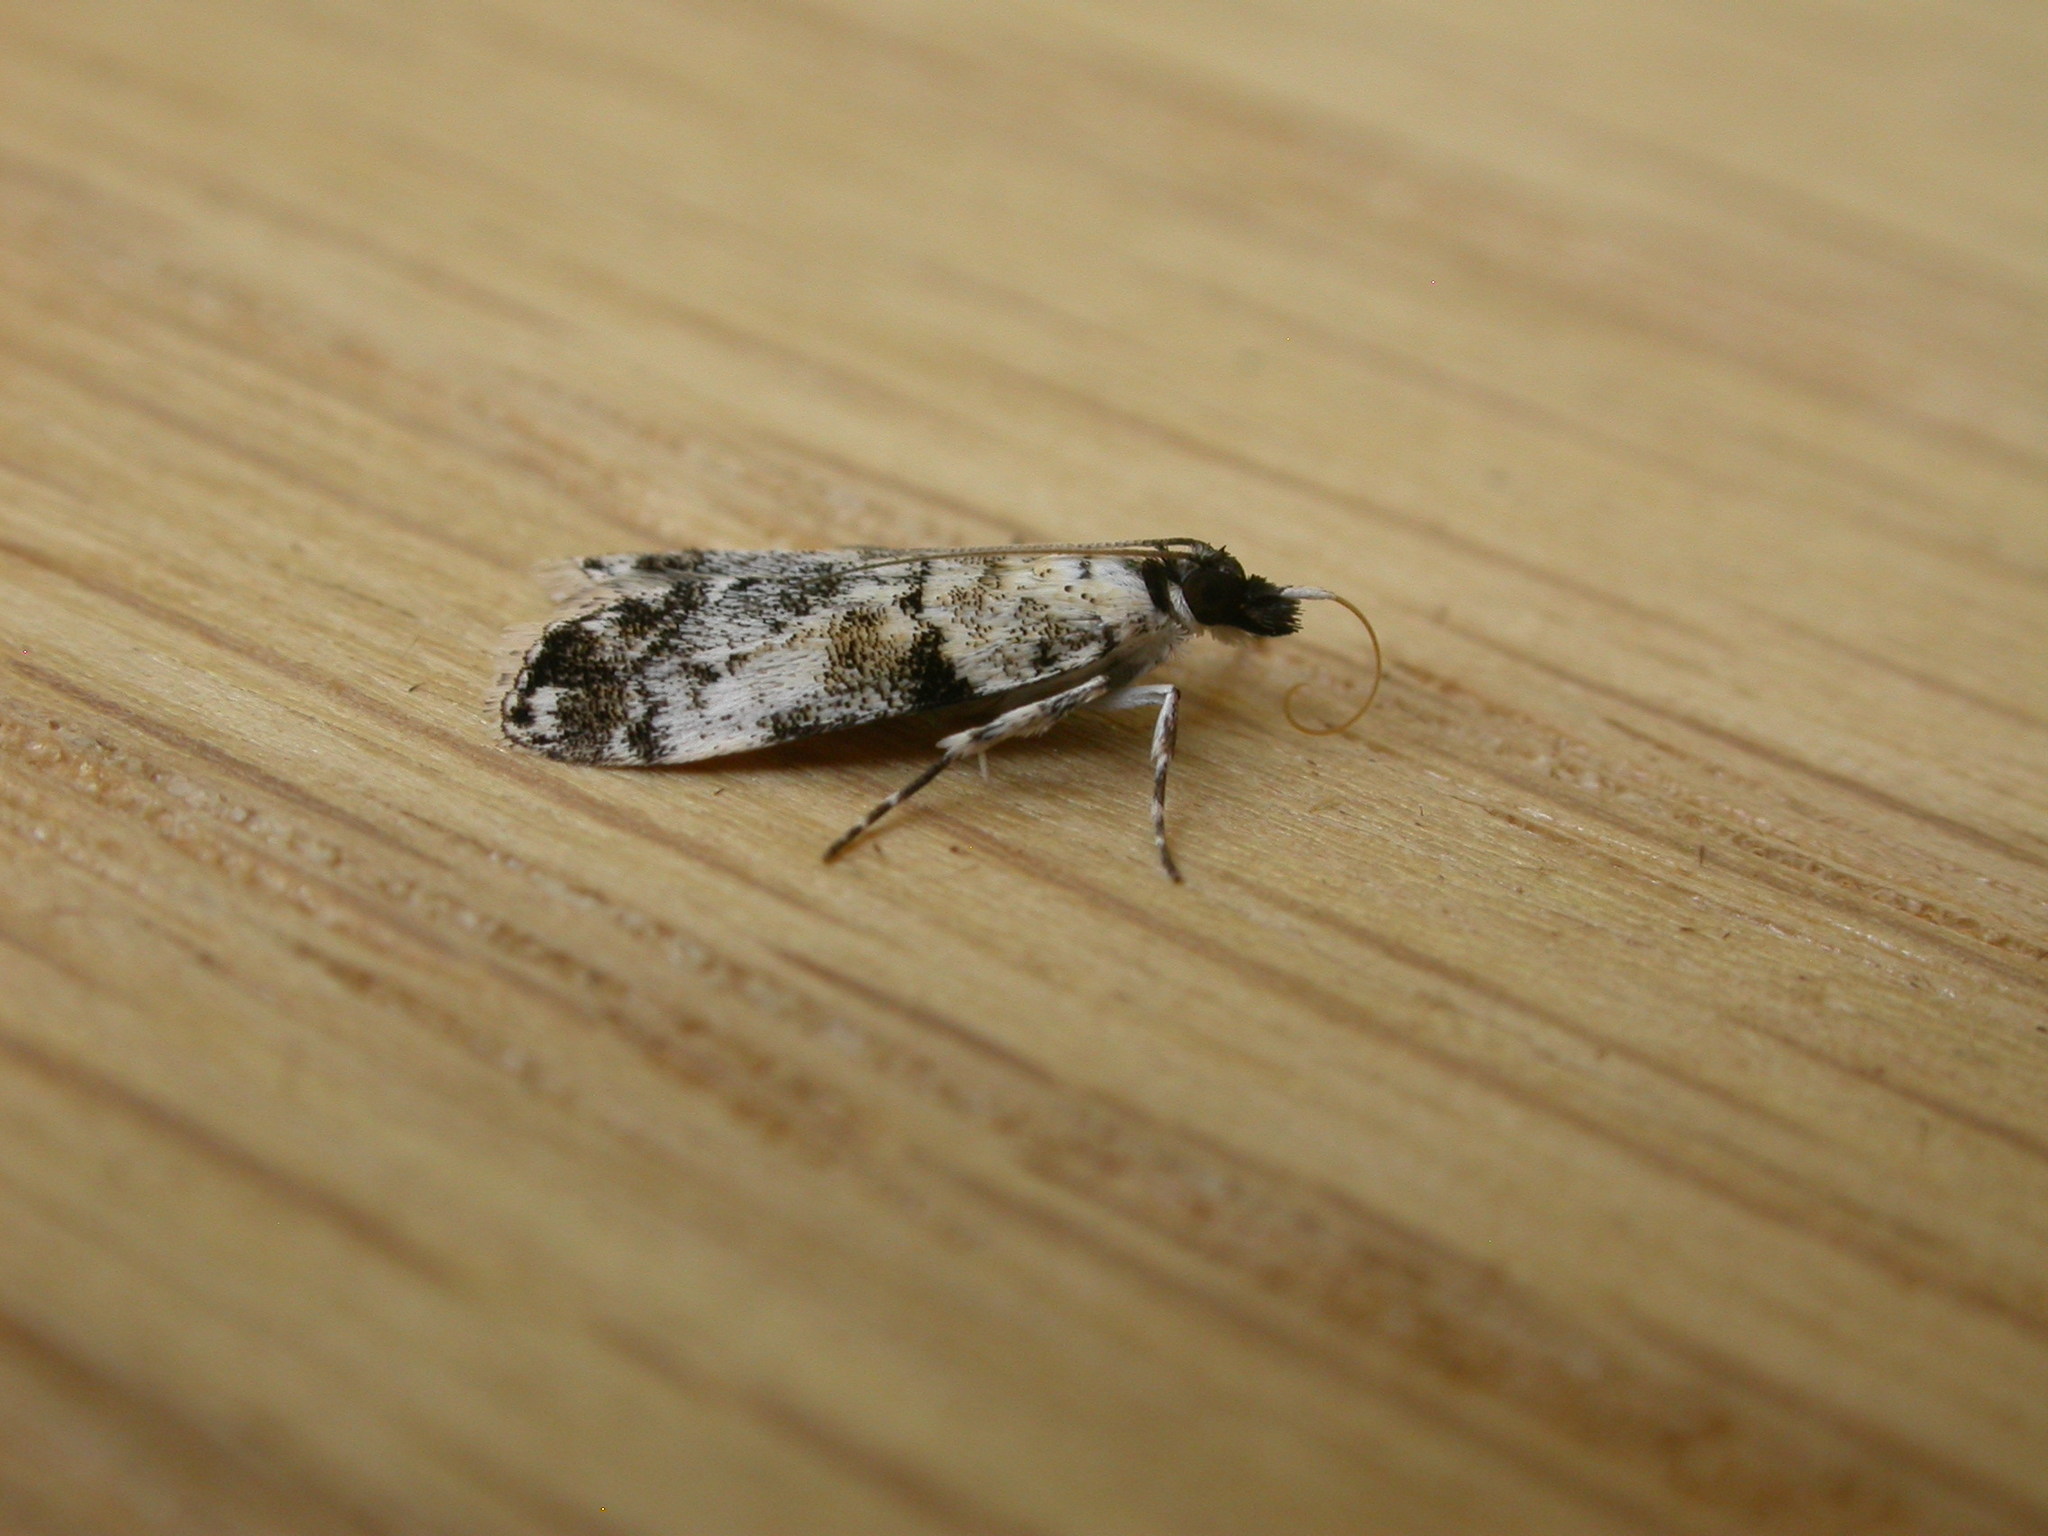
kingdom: Animalia
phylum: Arthropoda
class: Insecta
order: Lepidoptera
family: Crambidae
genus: Scoparia
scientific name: Scoparia niphetodes
